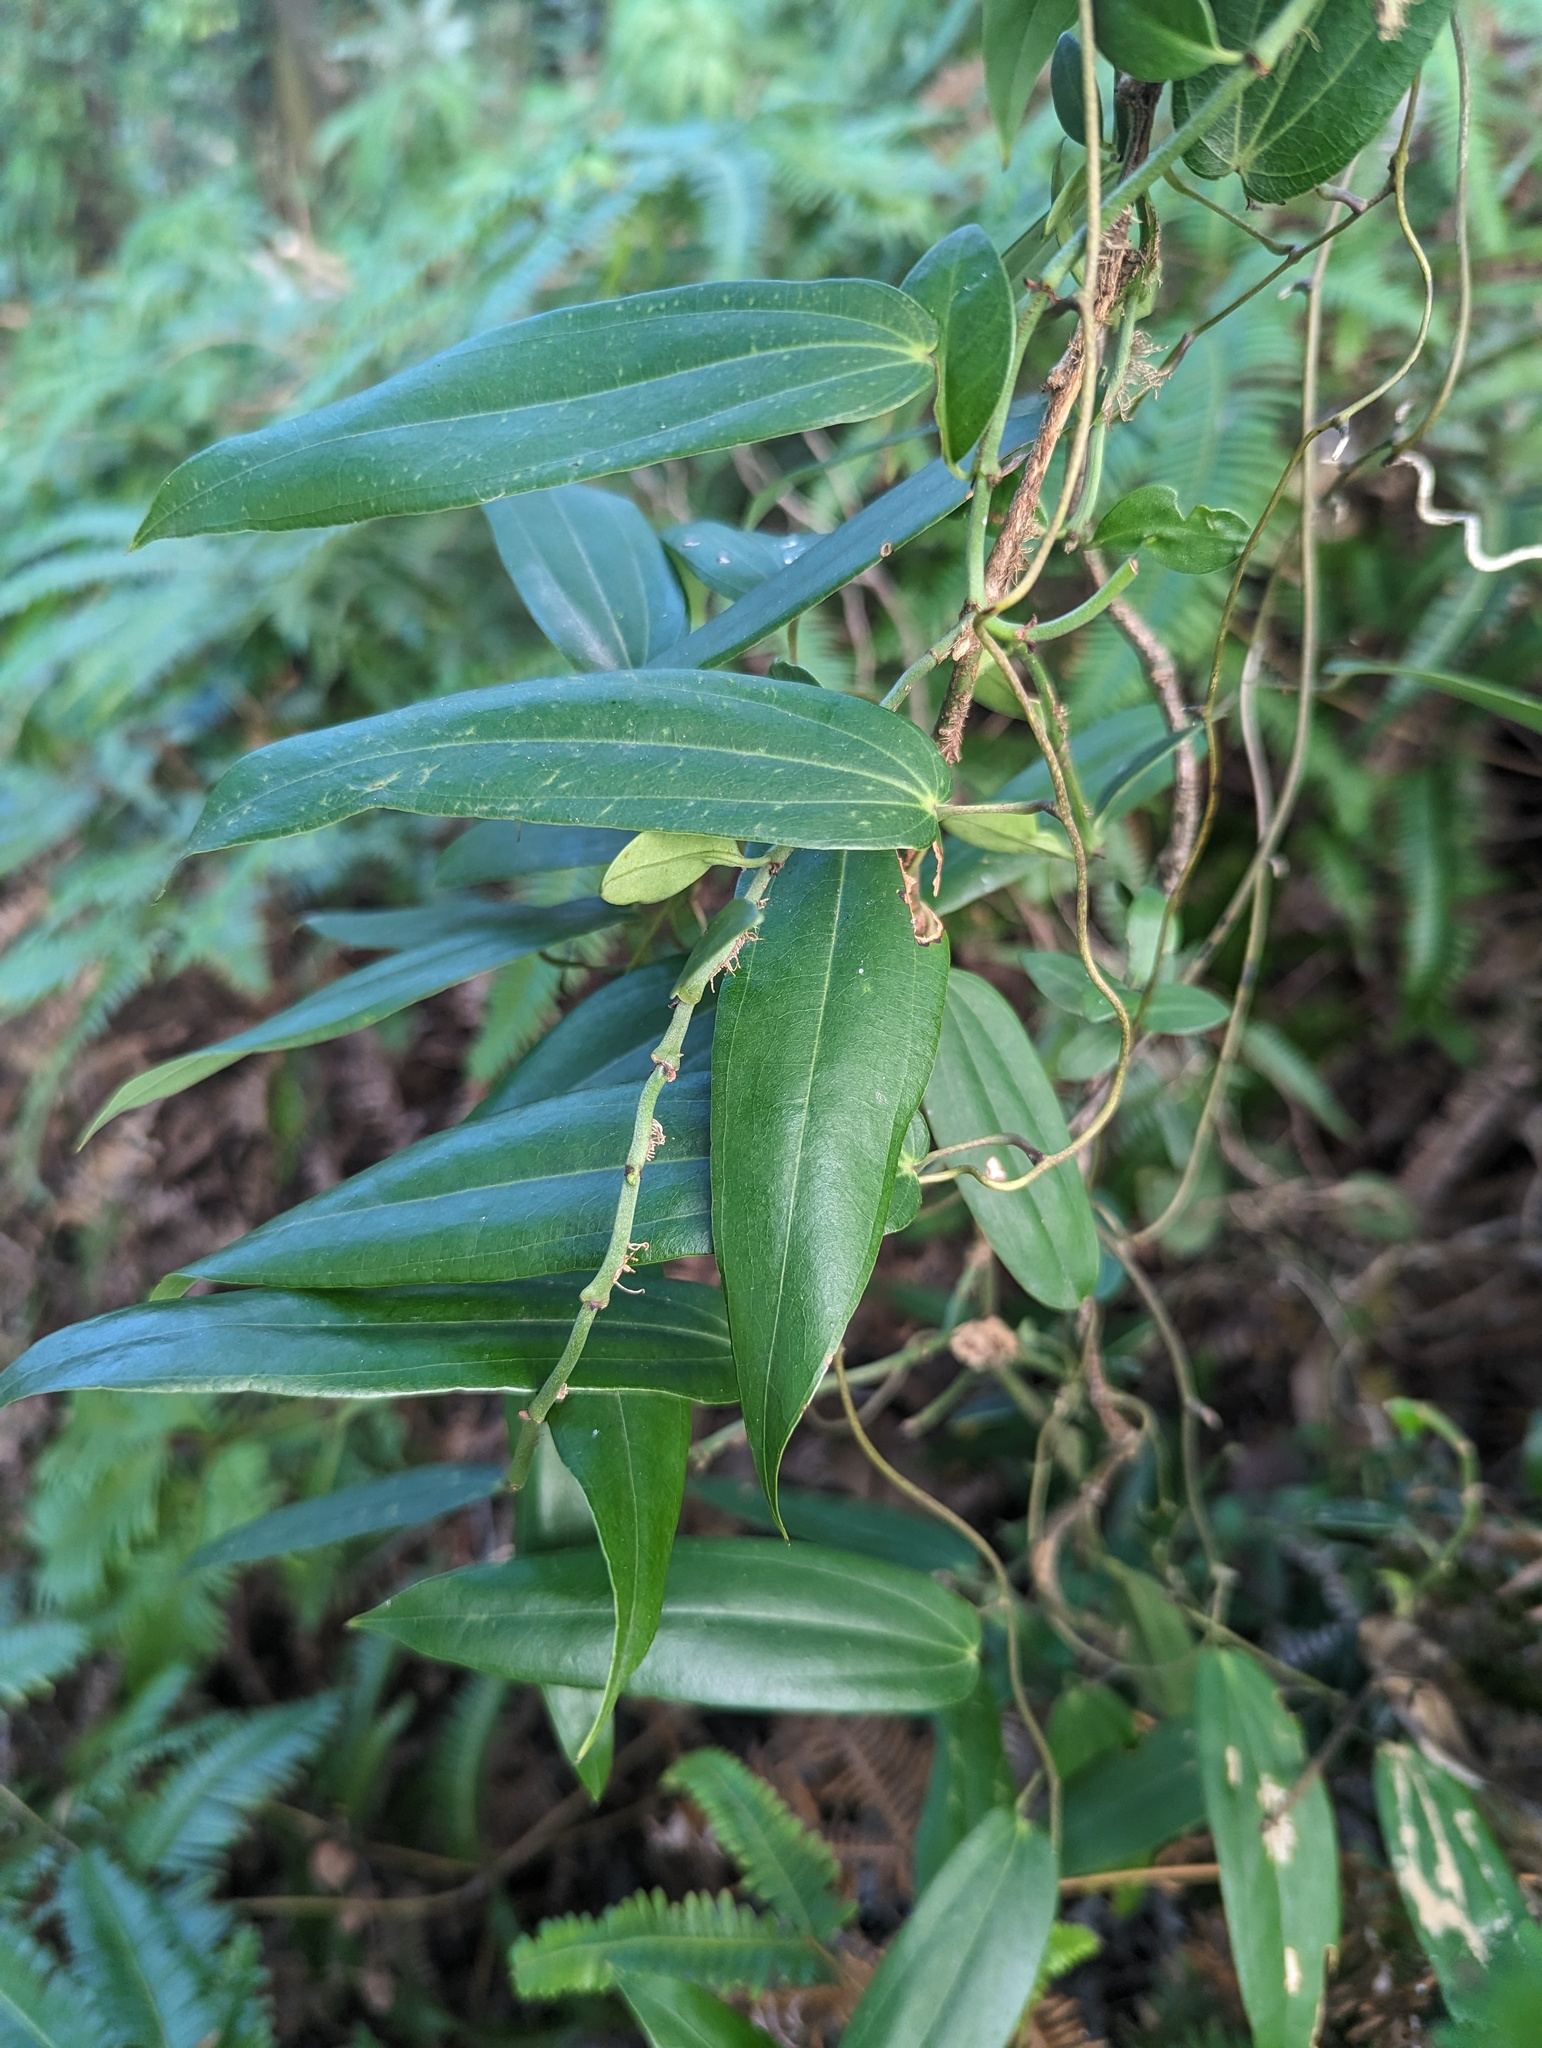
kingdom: Plantae
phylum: Tracheophyta
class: Liliopsida
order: Dioscoreales
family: Dioscoreaceae
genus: Dioscorea
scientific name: Dioscorea cirrhosa
